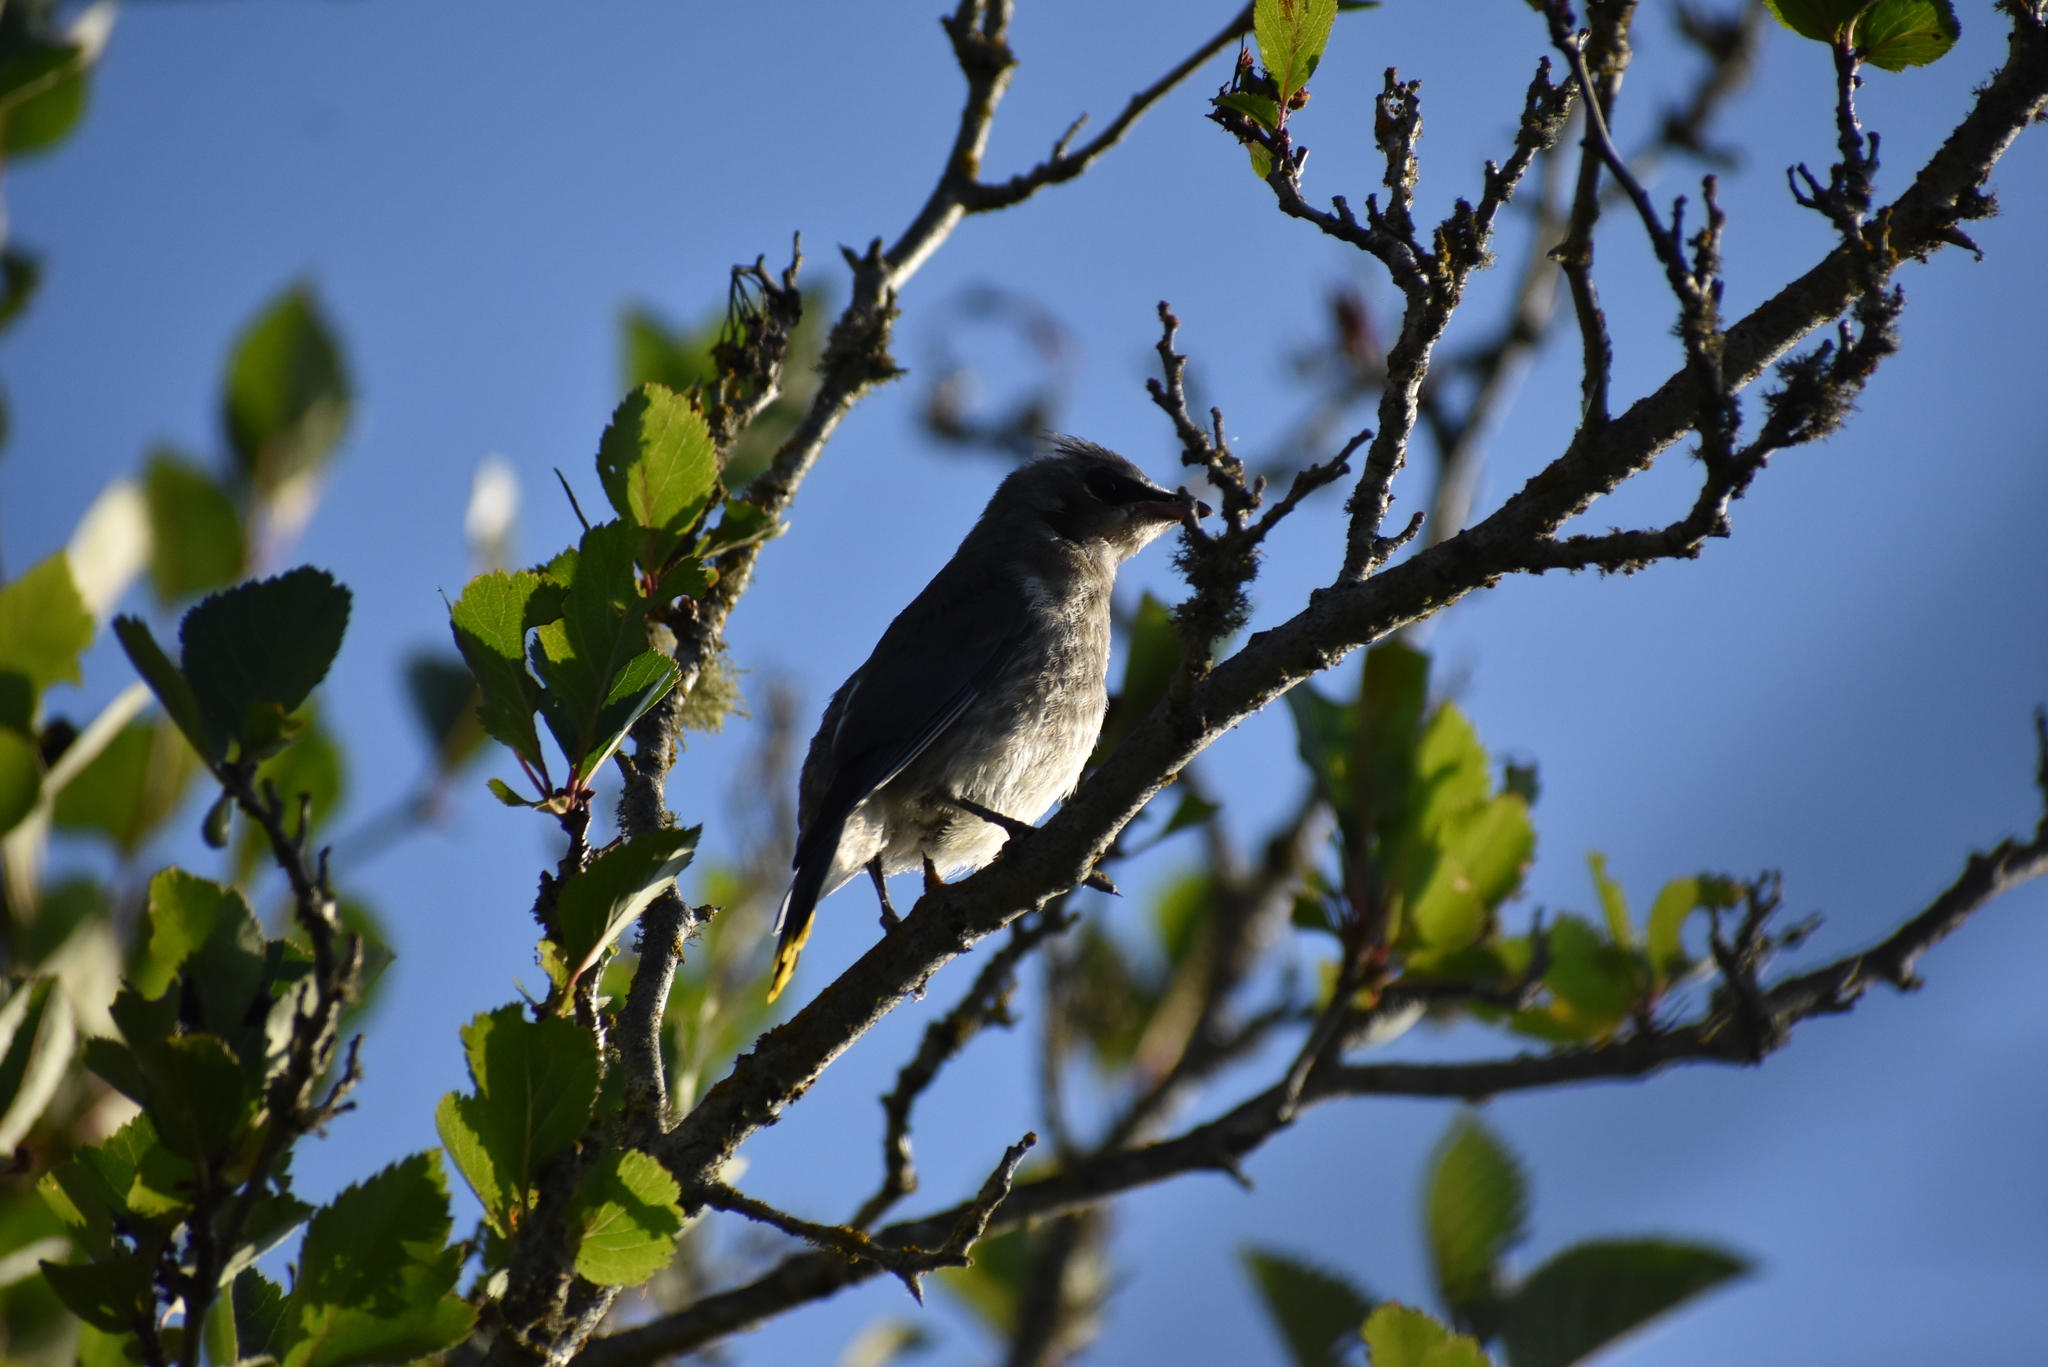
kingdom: Animalia
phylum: Chordata
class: Aves
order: Passeriformes
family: Bombycillidae
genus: Bombycilla
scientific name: Bombycilla cedrorum
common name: Cedar waxwing
